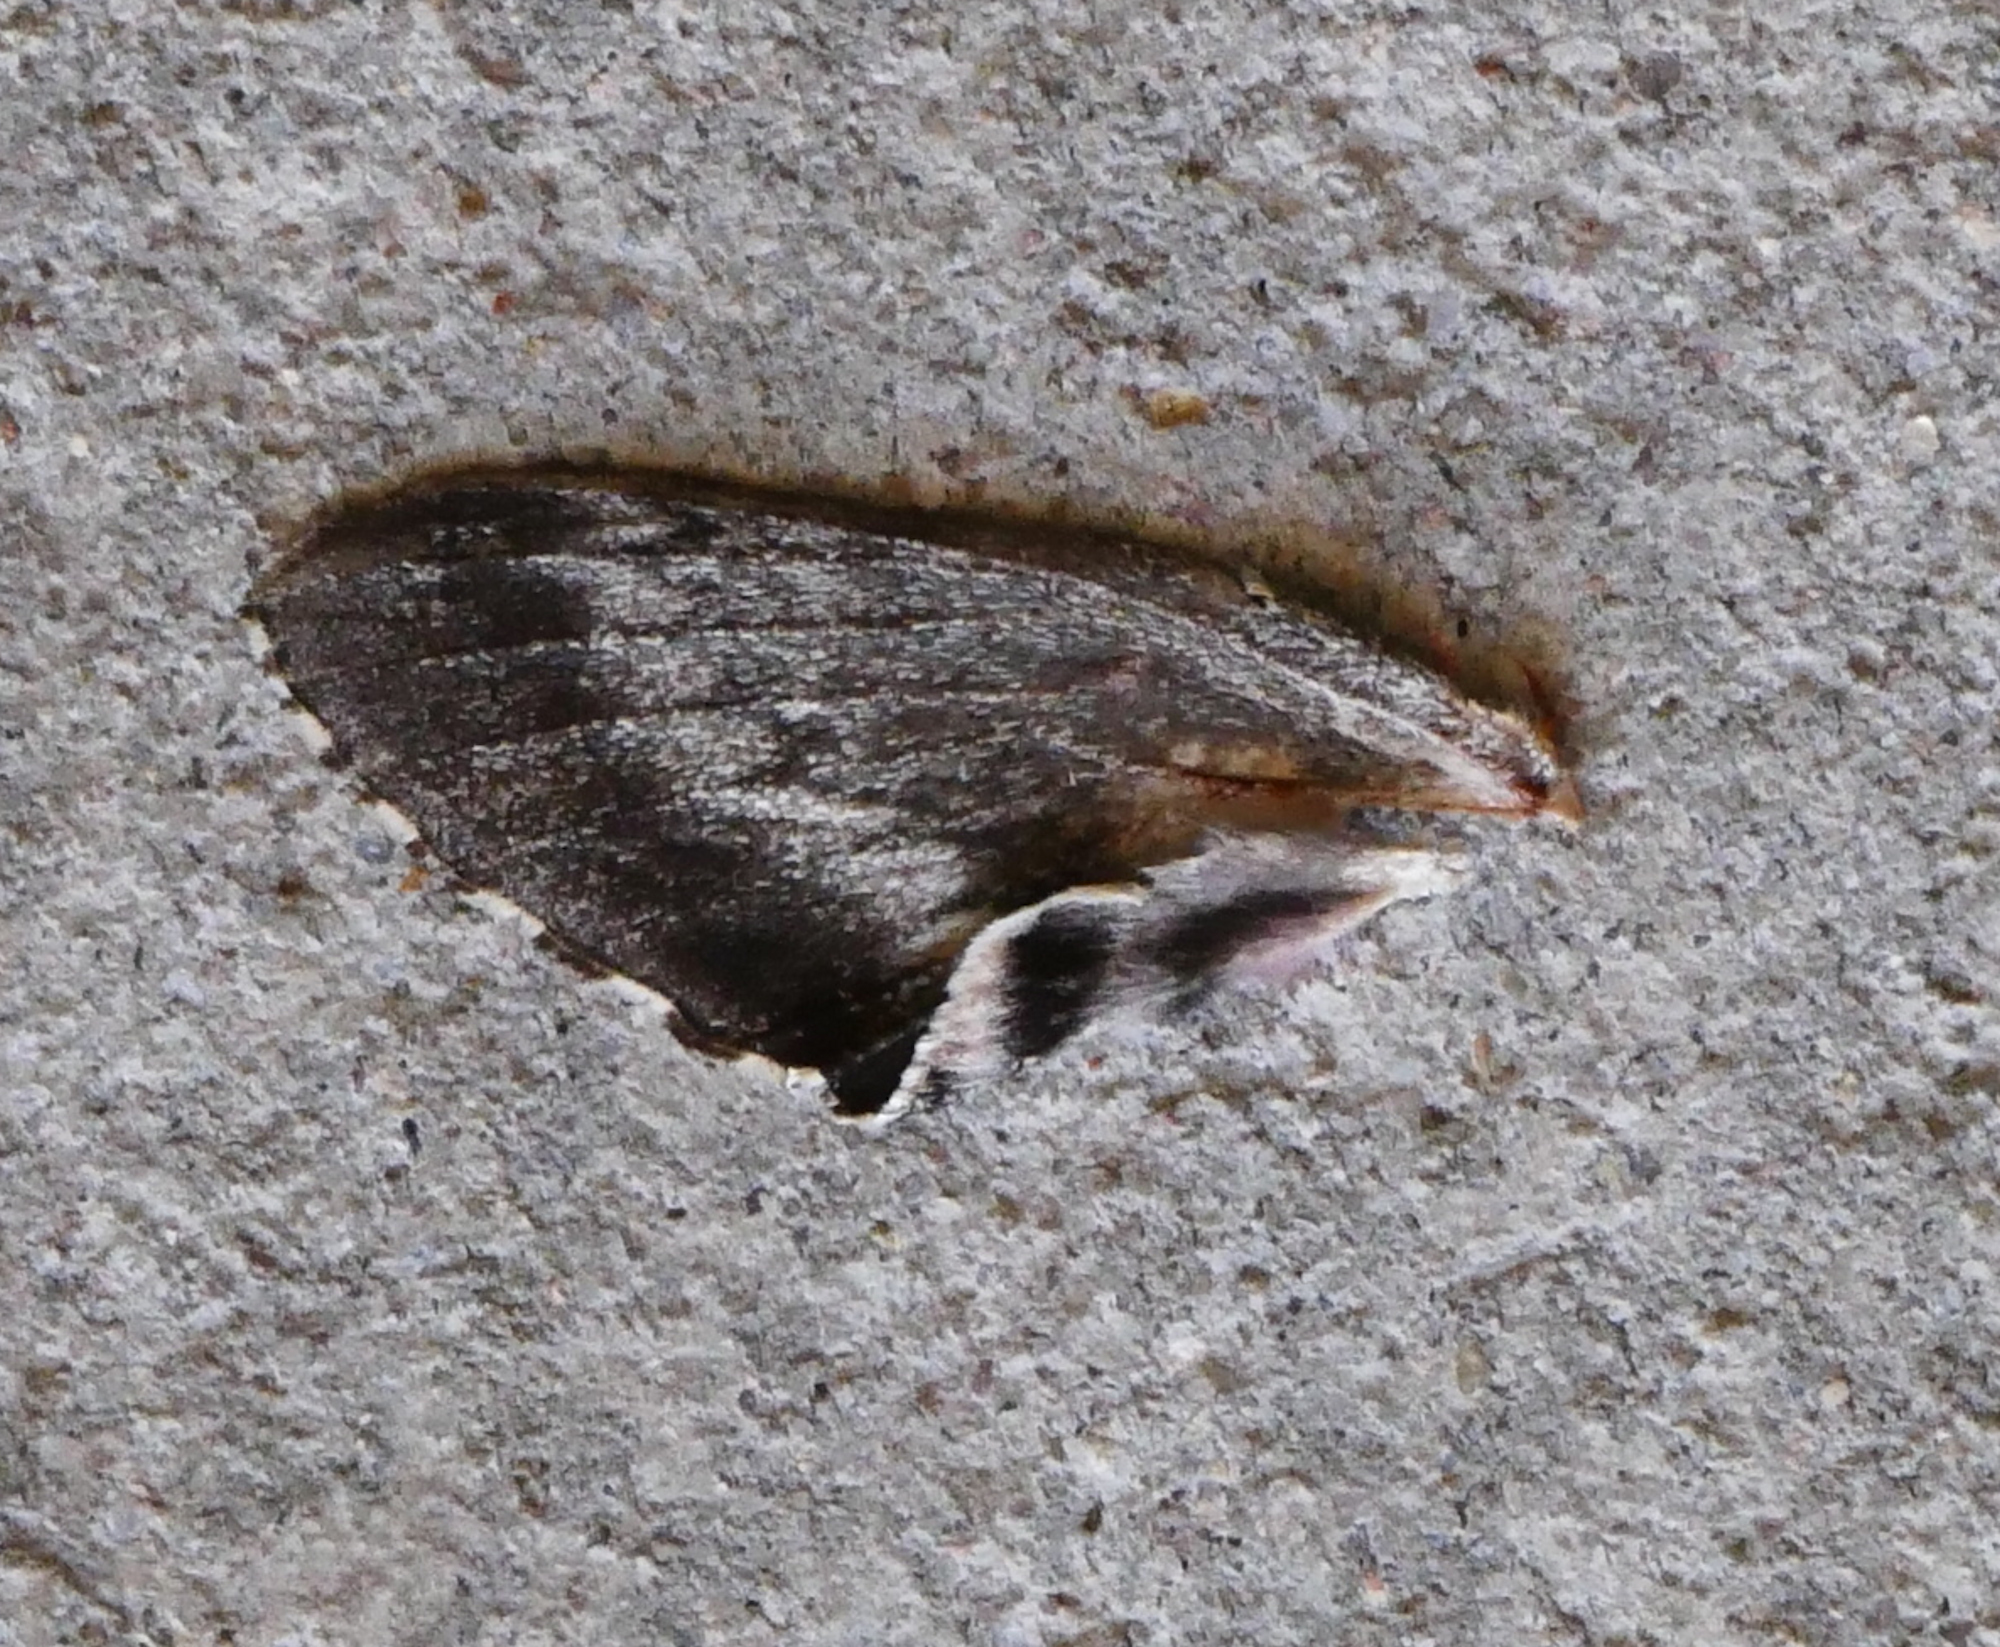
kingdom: Animalia
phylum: Arthropoda
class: Insecta
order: Lepidoptera
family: Sphingidae
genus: Agrius
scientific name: Agrius cingulata
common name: Pink-spotted hawkmoth
